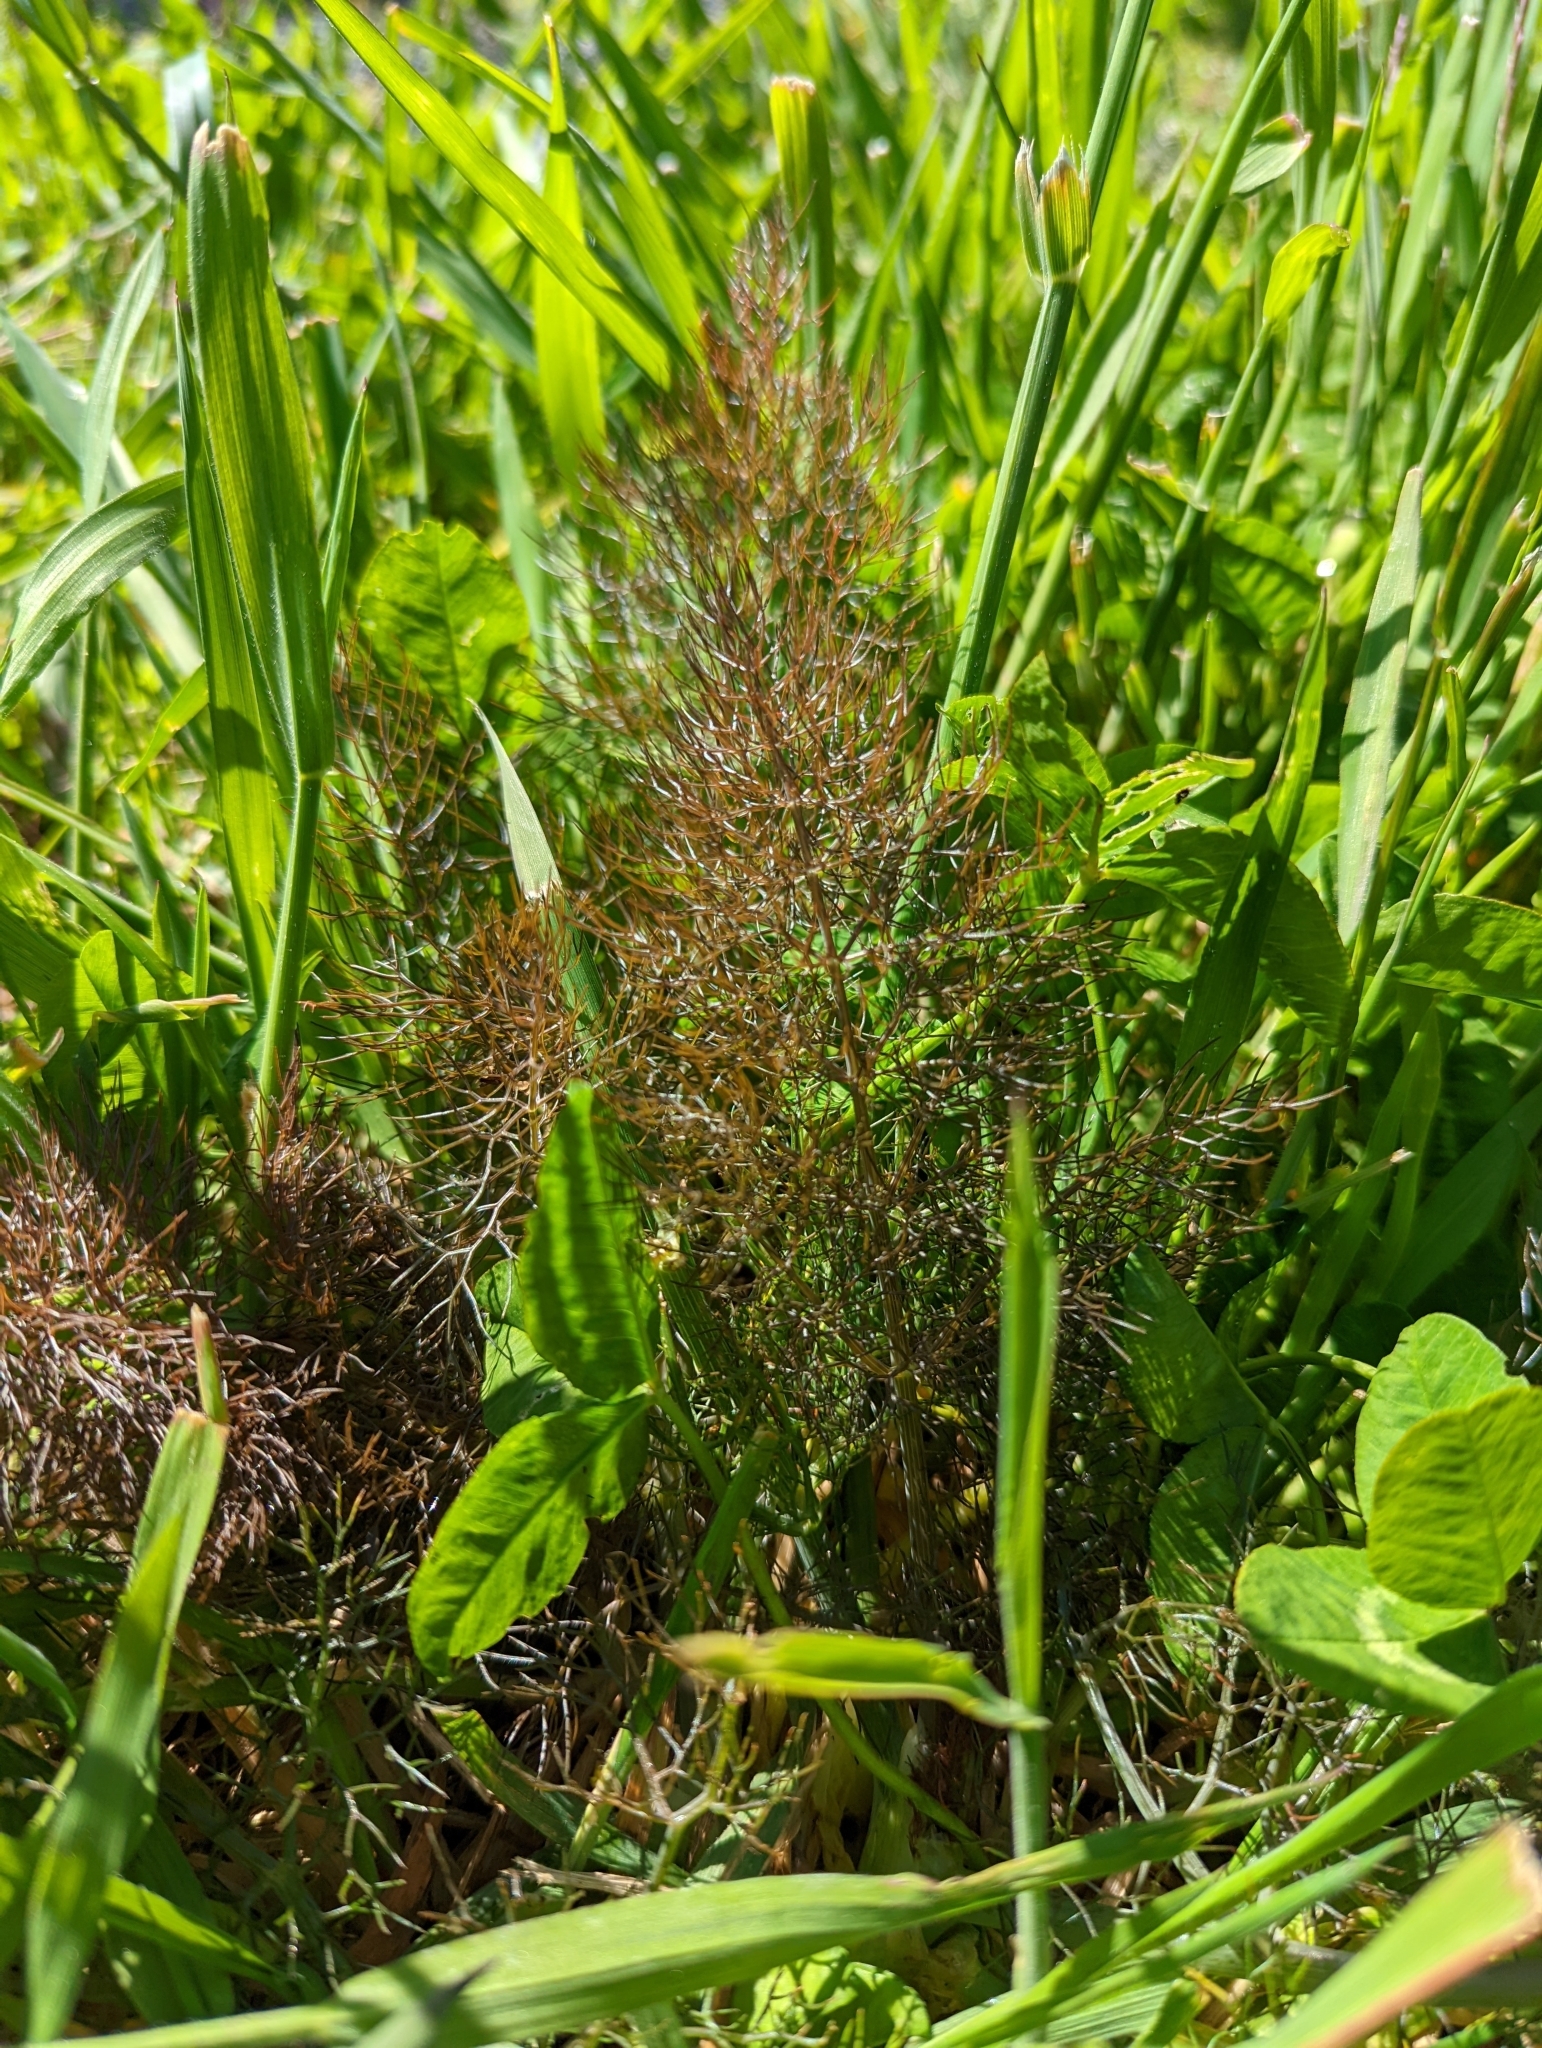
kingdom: Plantae
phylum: Tracheophyta
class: Magnoliopsida
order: Apiales
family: Apiaceae
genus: Foeniculum
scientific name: Foeniculum vulgare
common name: Fennel
